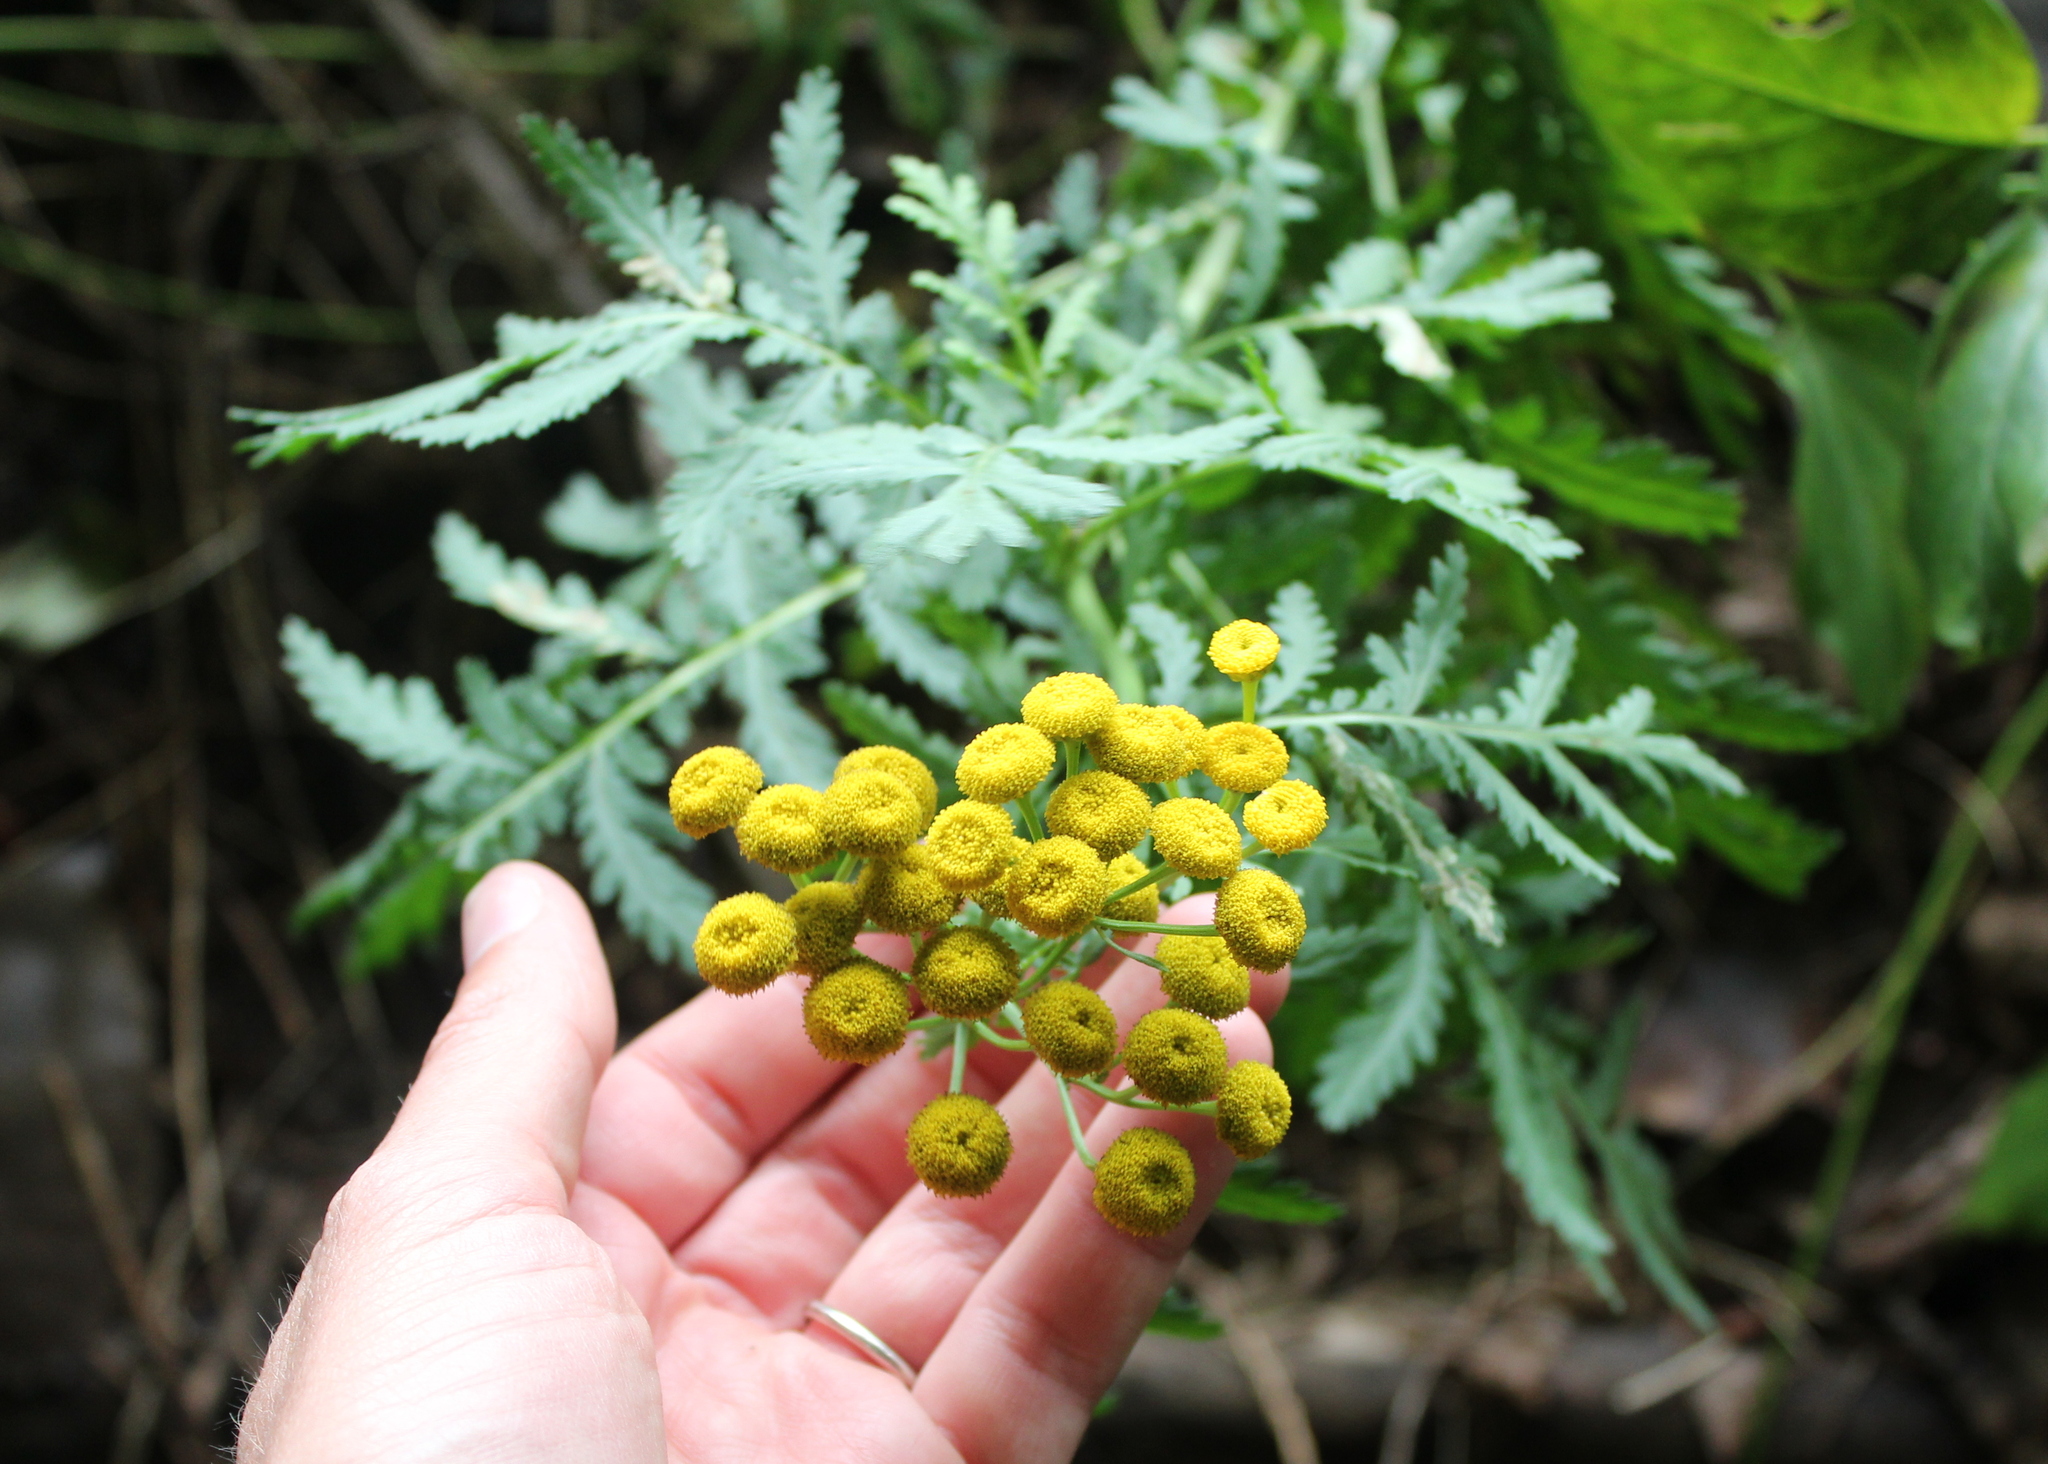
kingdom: Plantae
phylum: Tracheophyta
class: Magnoliopsida
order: Asterales
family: Asteraceae
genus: Tanacetum
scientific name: Tanacetum vulgare
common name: Common tansy
